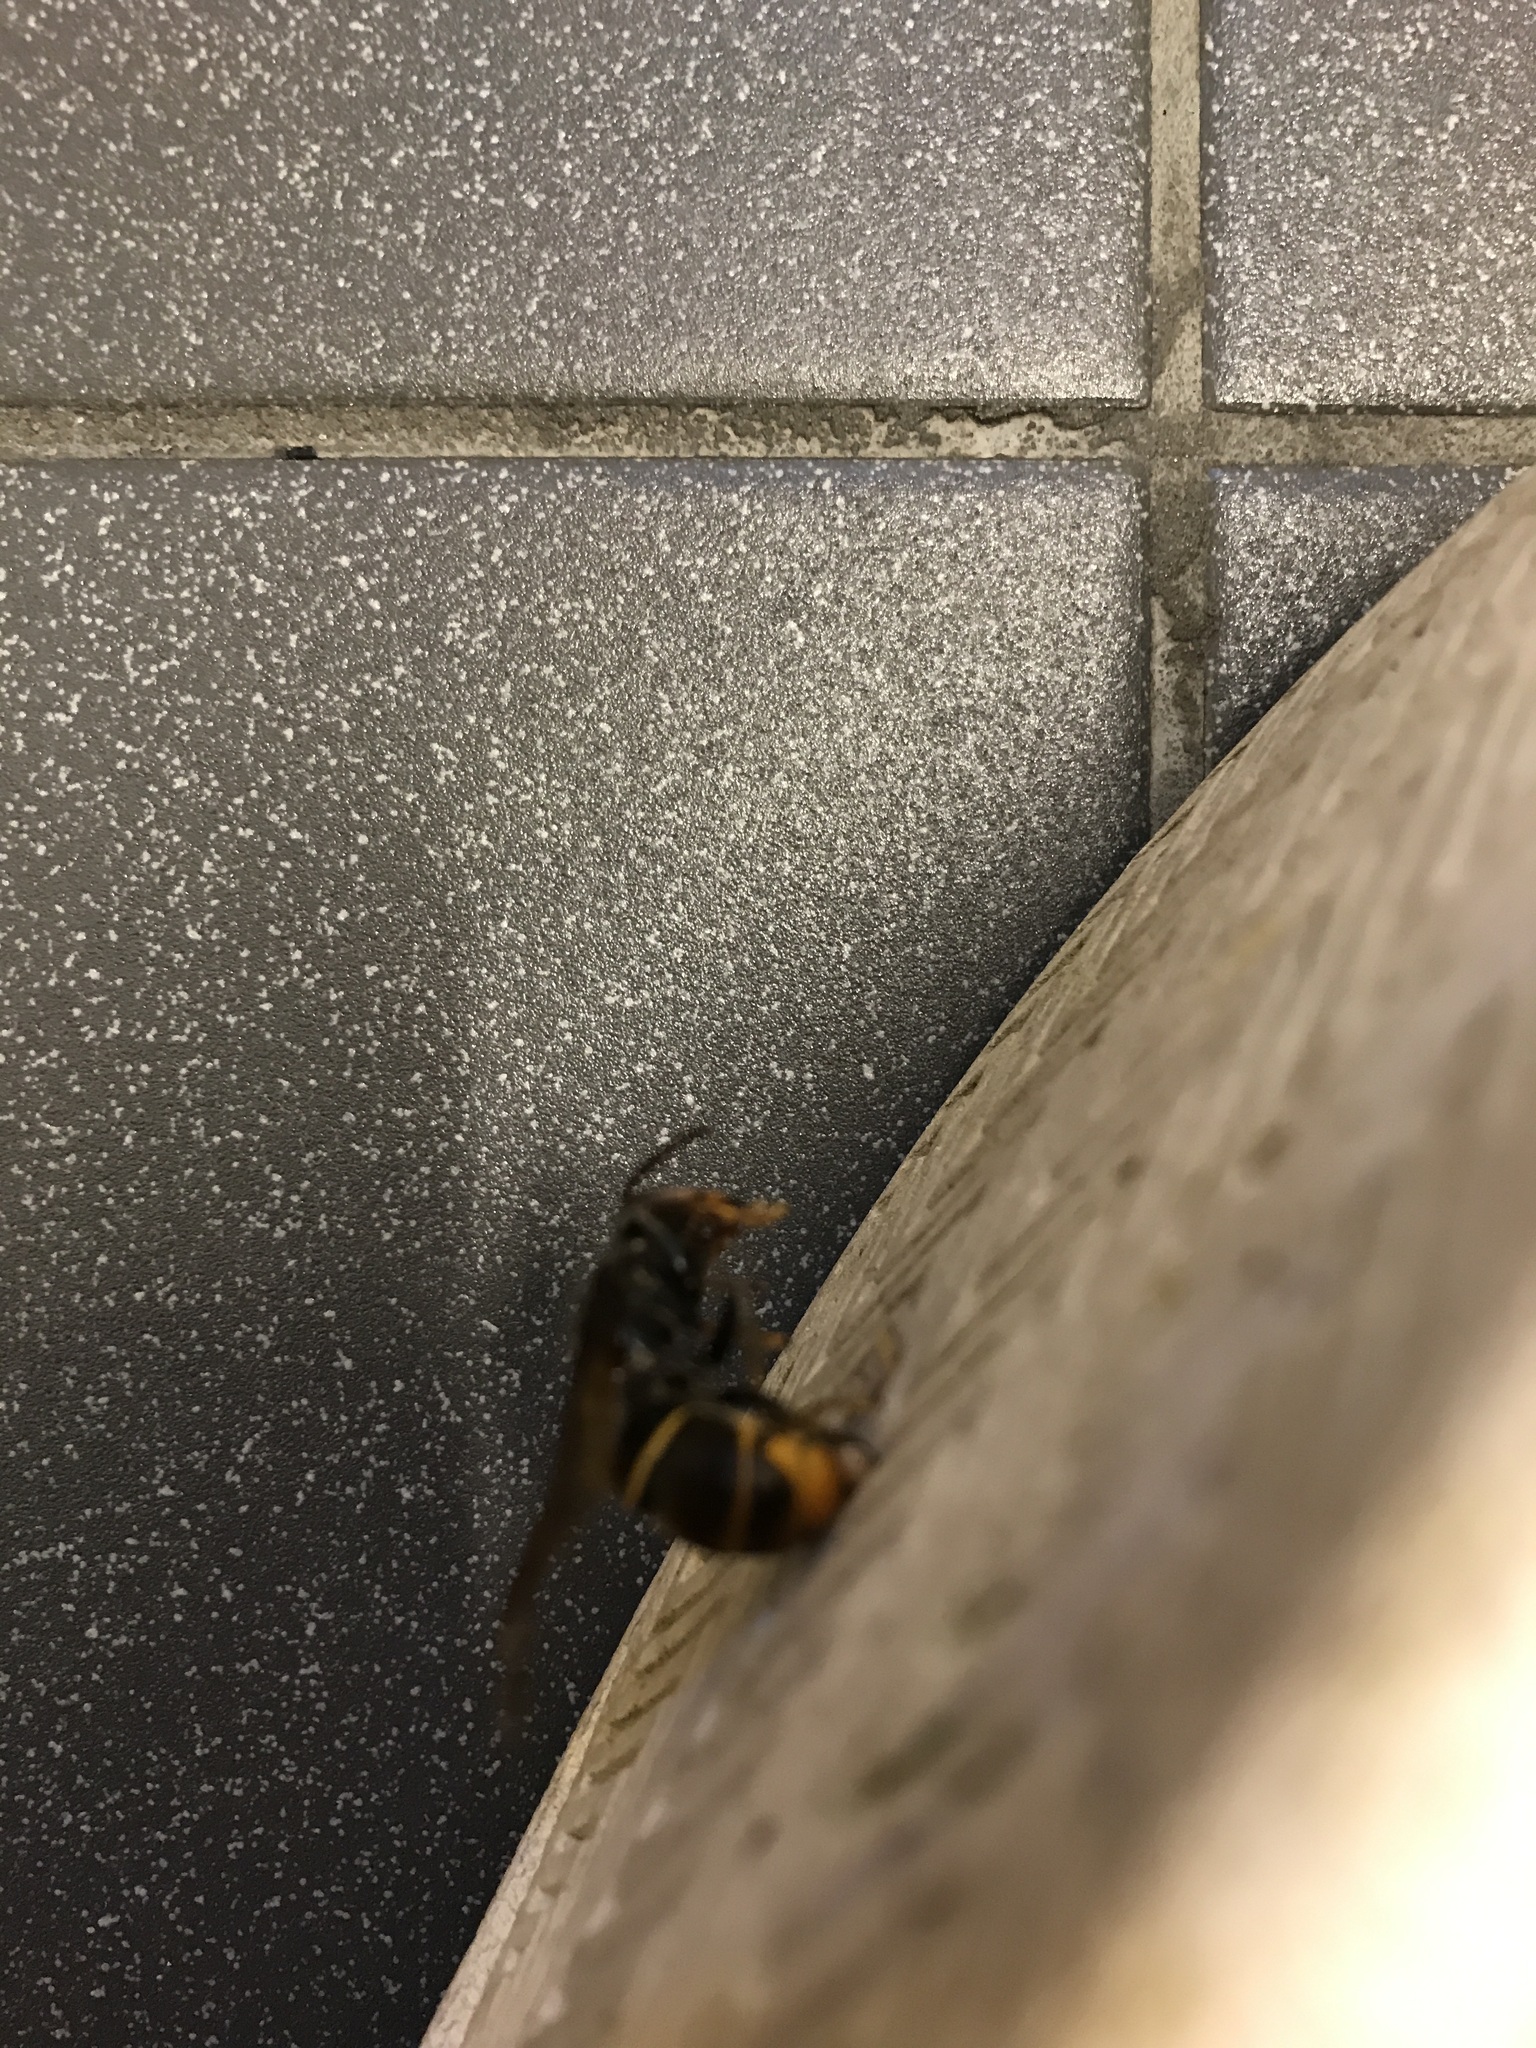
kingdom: Animalia
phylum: Arthropoda
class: Insecta
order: Hymenoptera
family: Vespidae
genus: Vespa
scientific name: Vespa velutina
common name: Asian hornet
